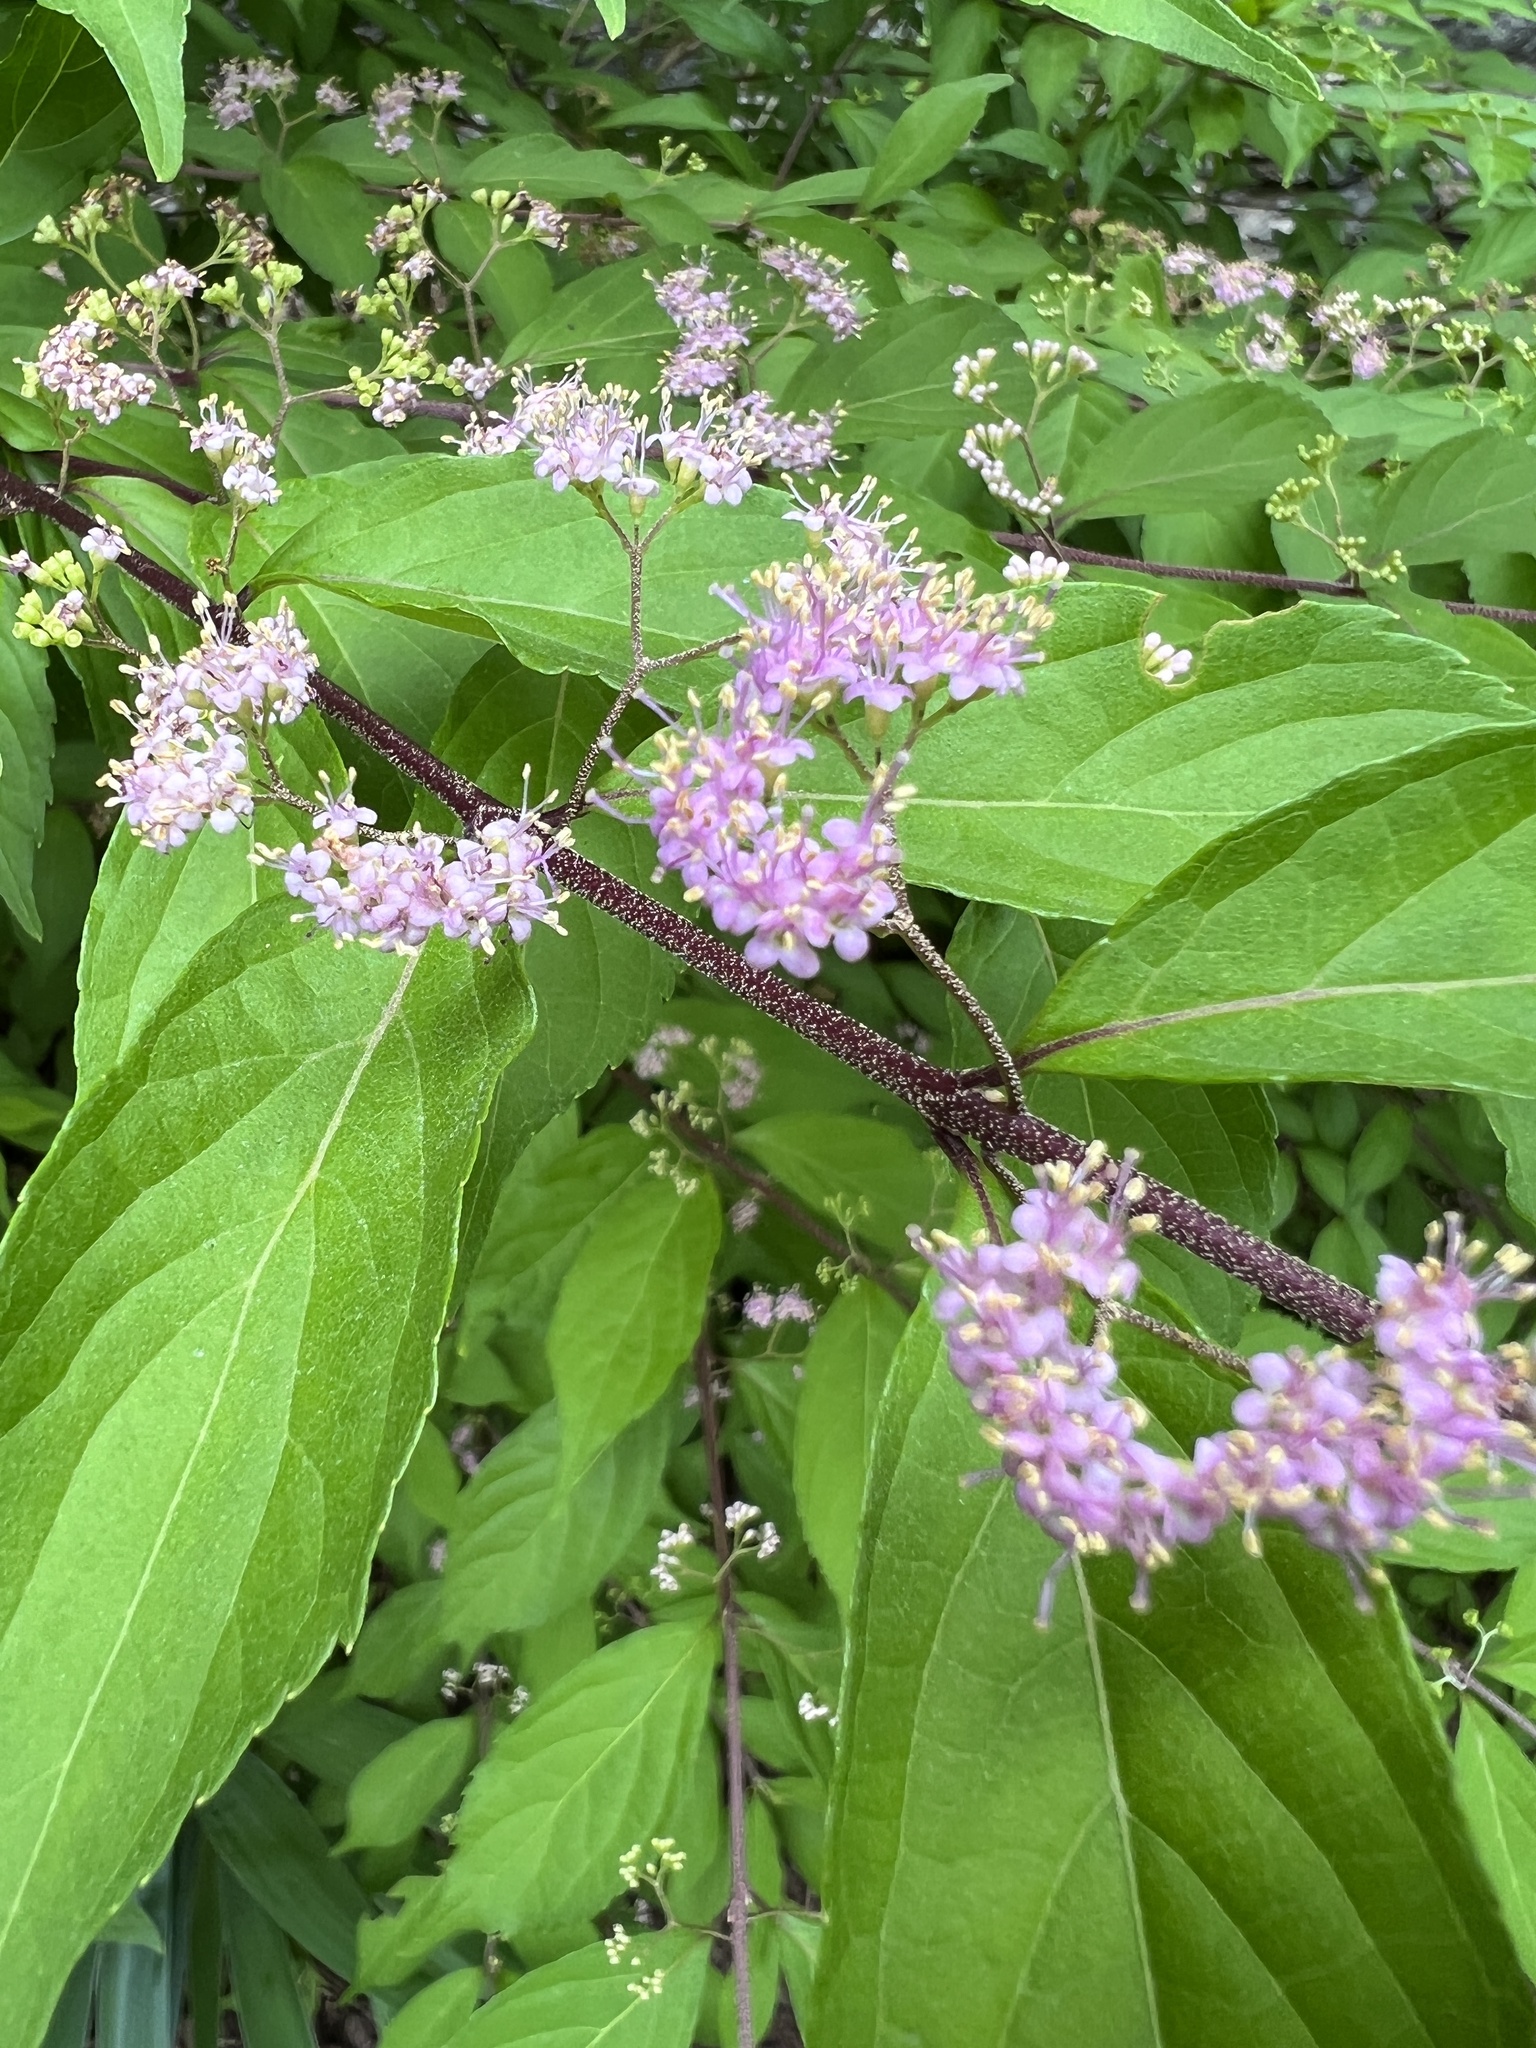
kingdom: Plantae
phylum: Tracheophyta
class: Magnoliopsida
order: Lamiales
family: Lamiaceae
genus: Callicarpa
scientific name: Callicarpa dichotoma
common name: Purple beauty-berry
